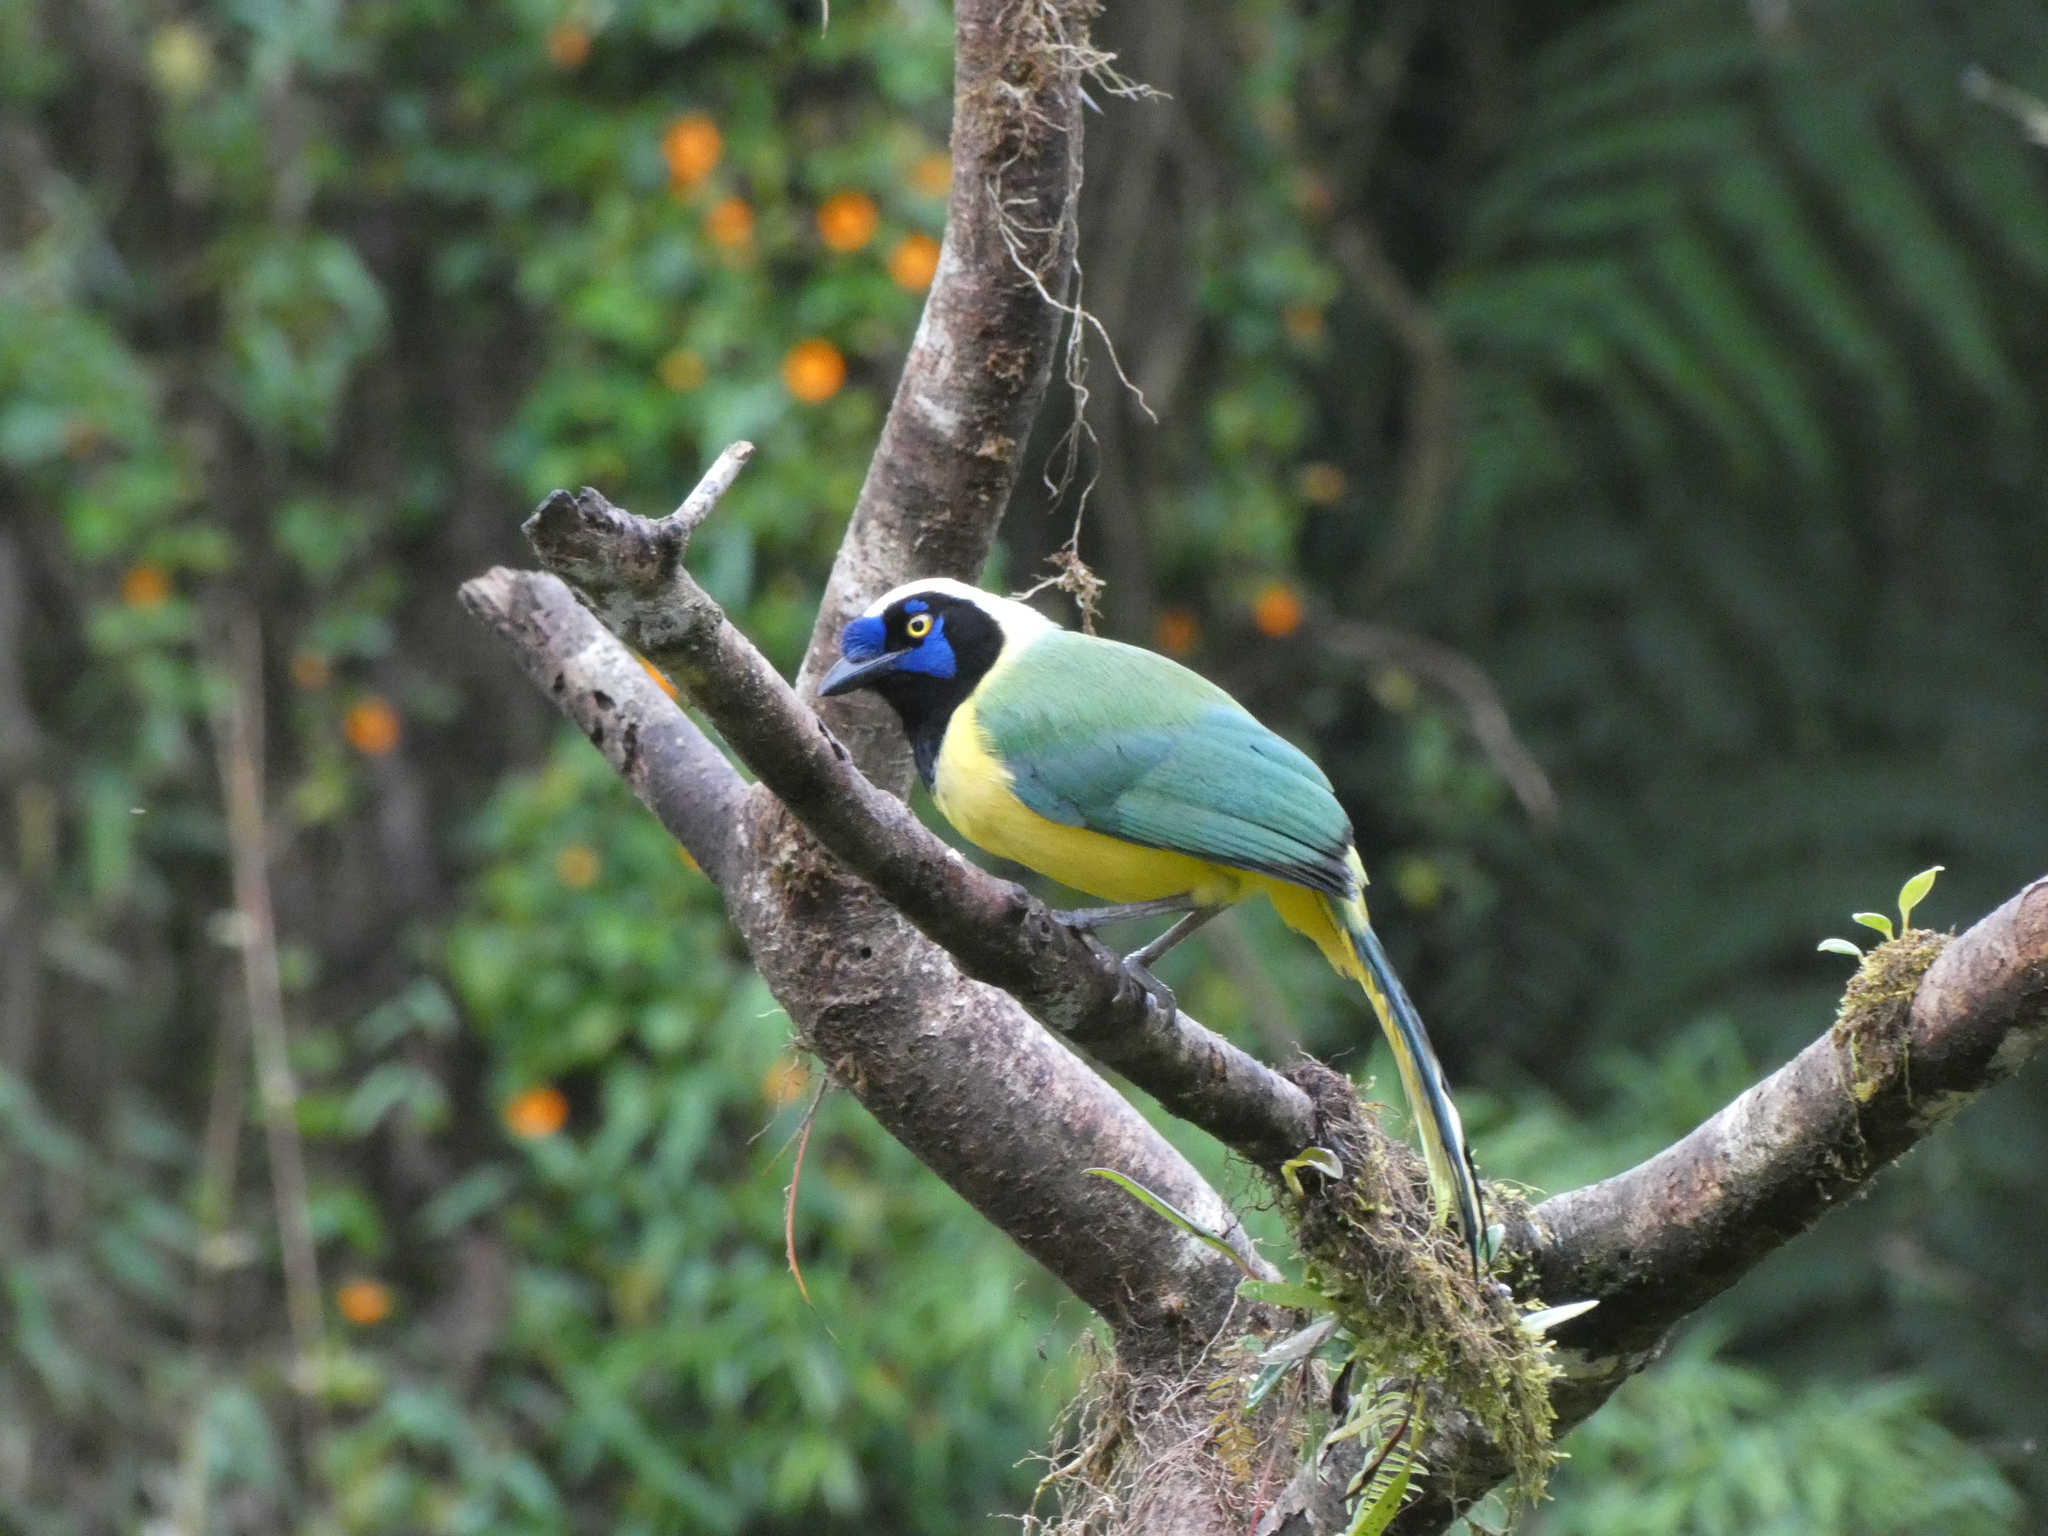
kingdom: Animalia
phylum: Chordata
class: Aves
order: Passeriformes
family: Corvidae
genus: Cyanocorax
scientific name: Cyanocorax yncas
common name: Green jay
